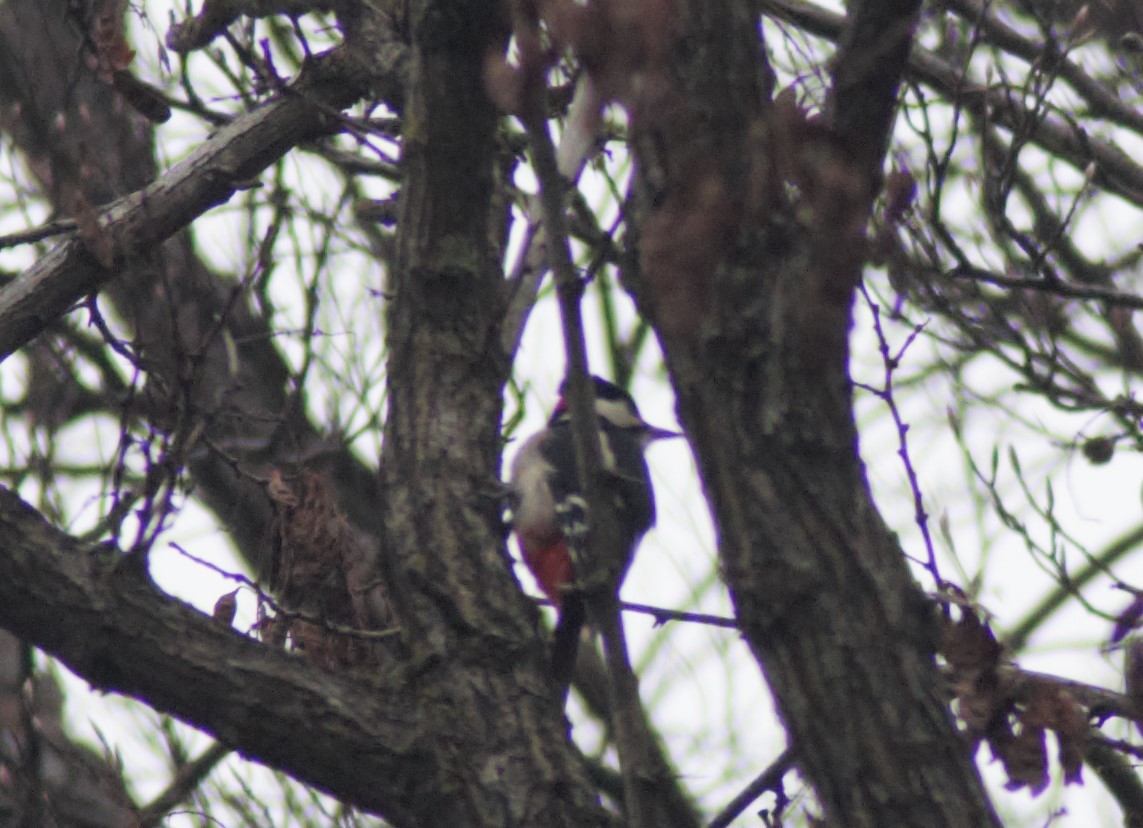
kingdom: Animalia
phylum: Chordata
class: Aves
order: Piciformes
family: Picidae
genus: Dendrocopos
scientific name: Dendrocopos major
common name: Great spotted woodpecker
